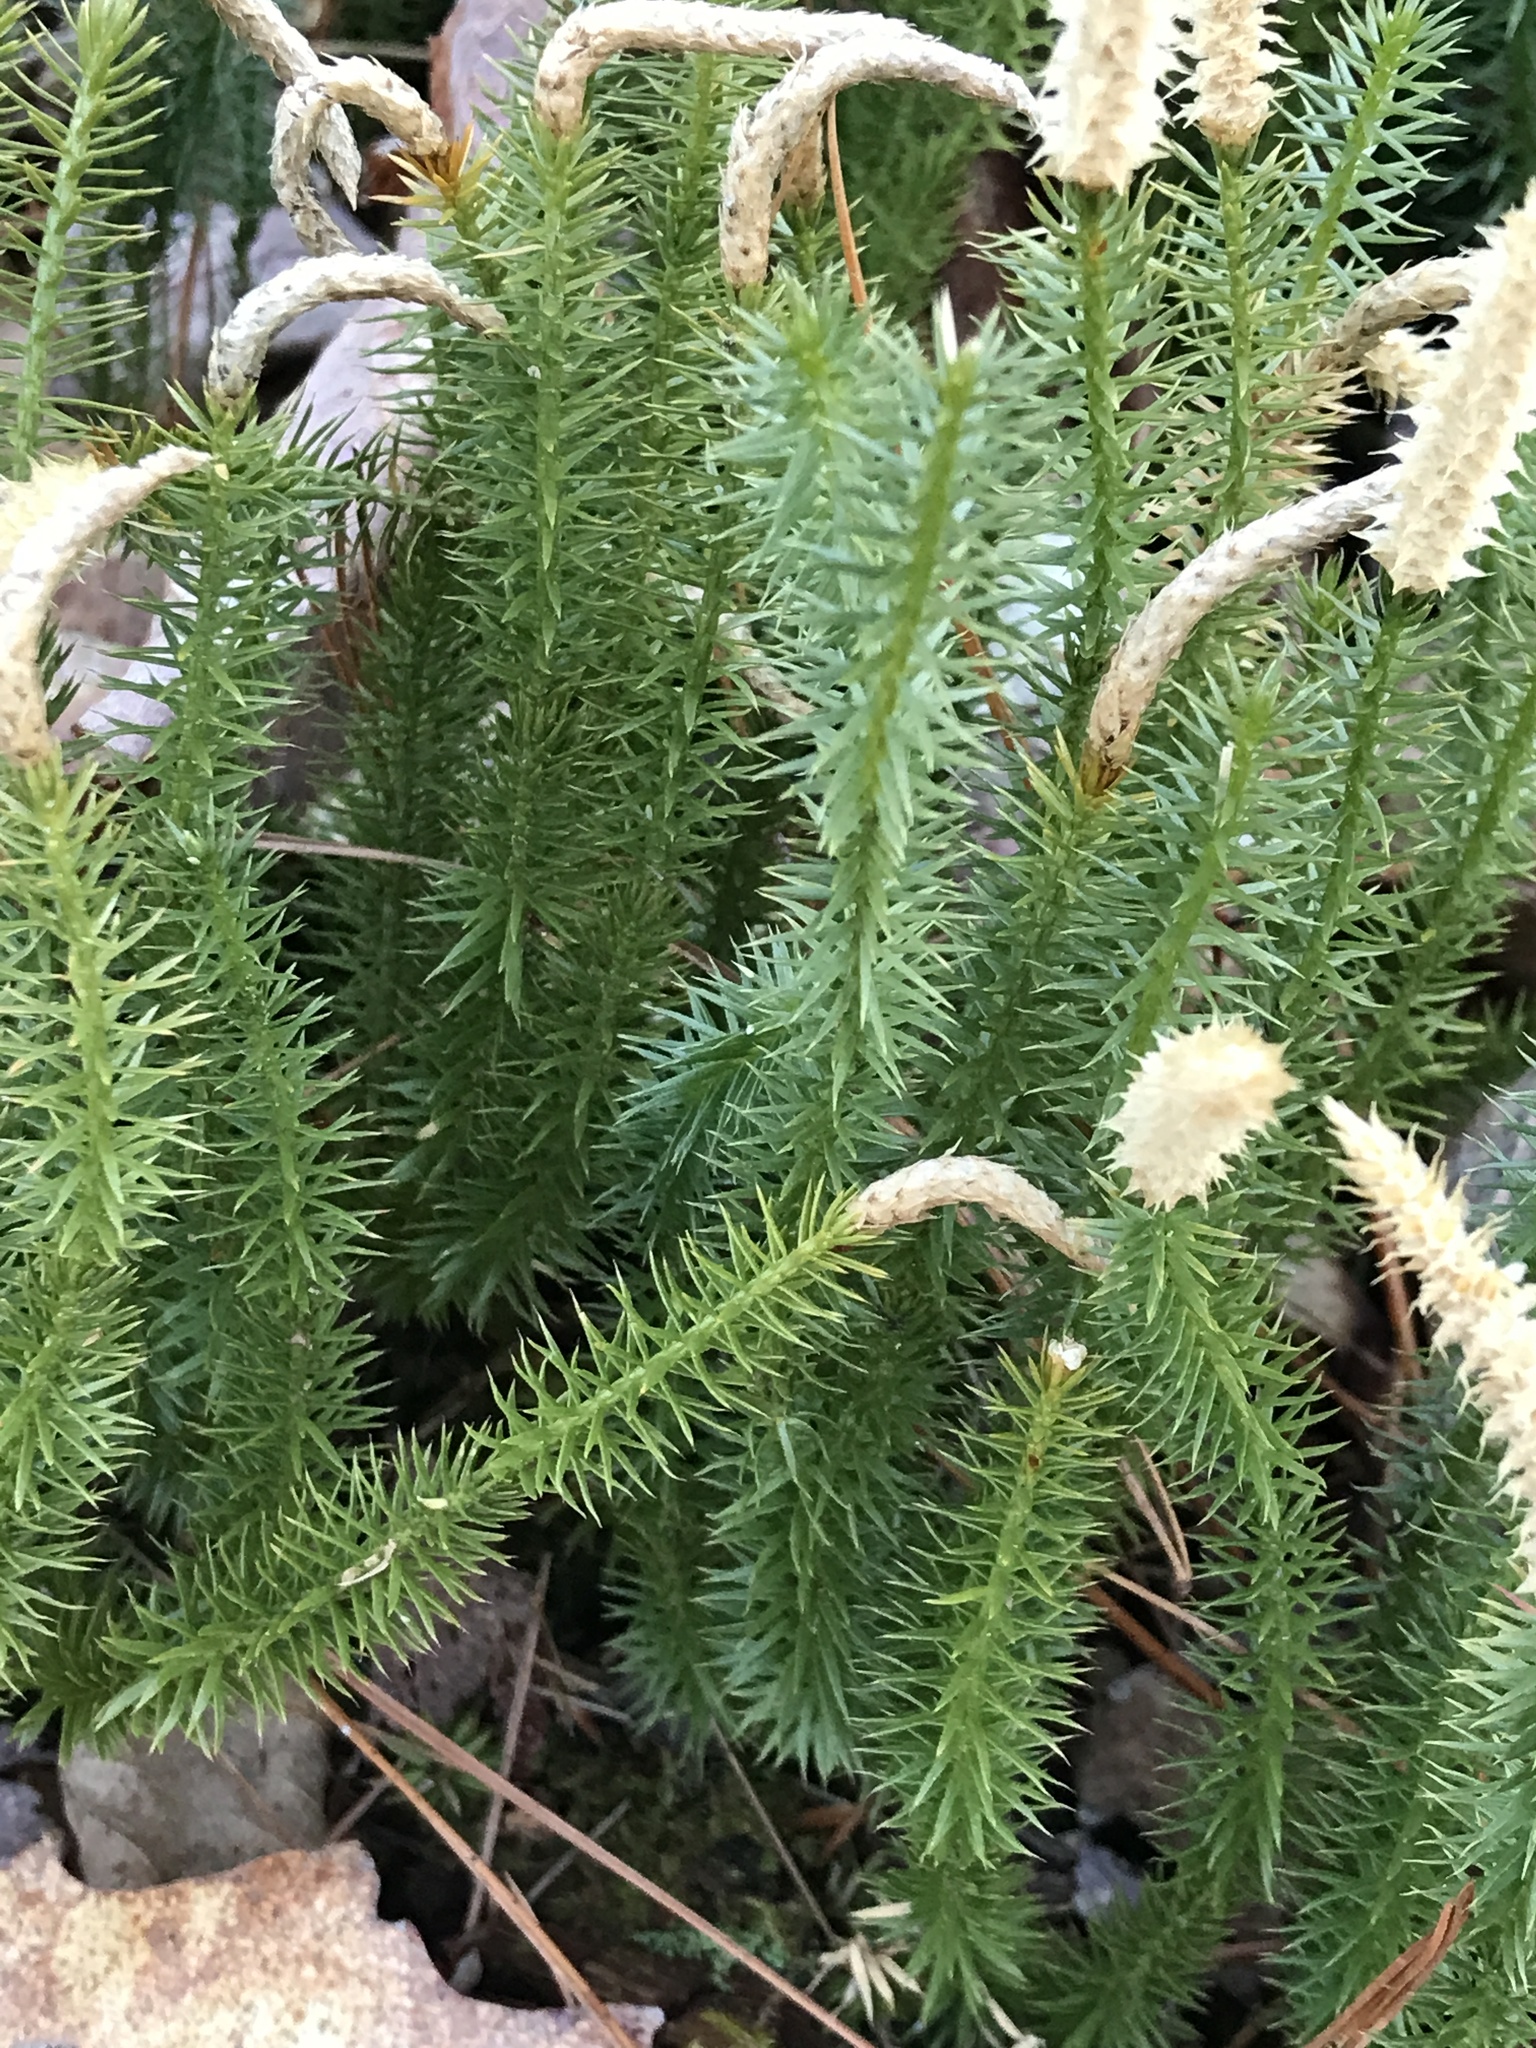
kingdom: Plantae
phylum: Tracheophyta
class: Lycopodiopsida
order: Lycopodiales
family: Lycopodiaceae
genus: Spinulum
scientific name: Spinulum annotinum
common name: Interrupted club-moss
